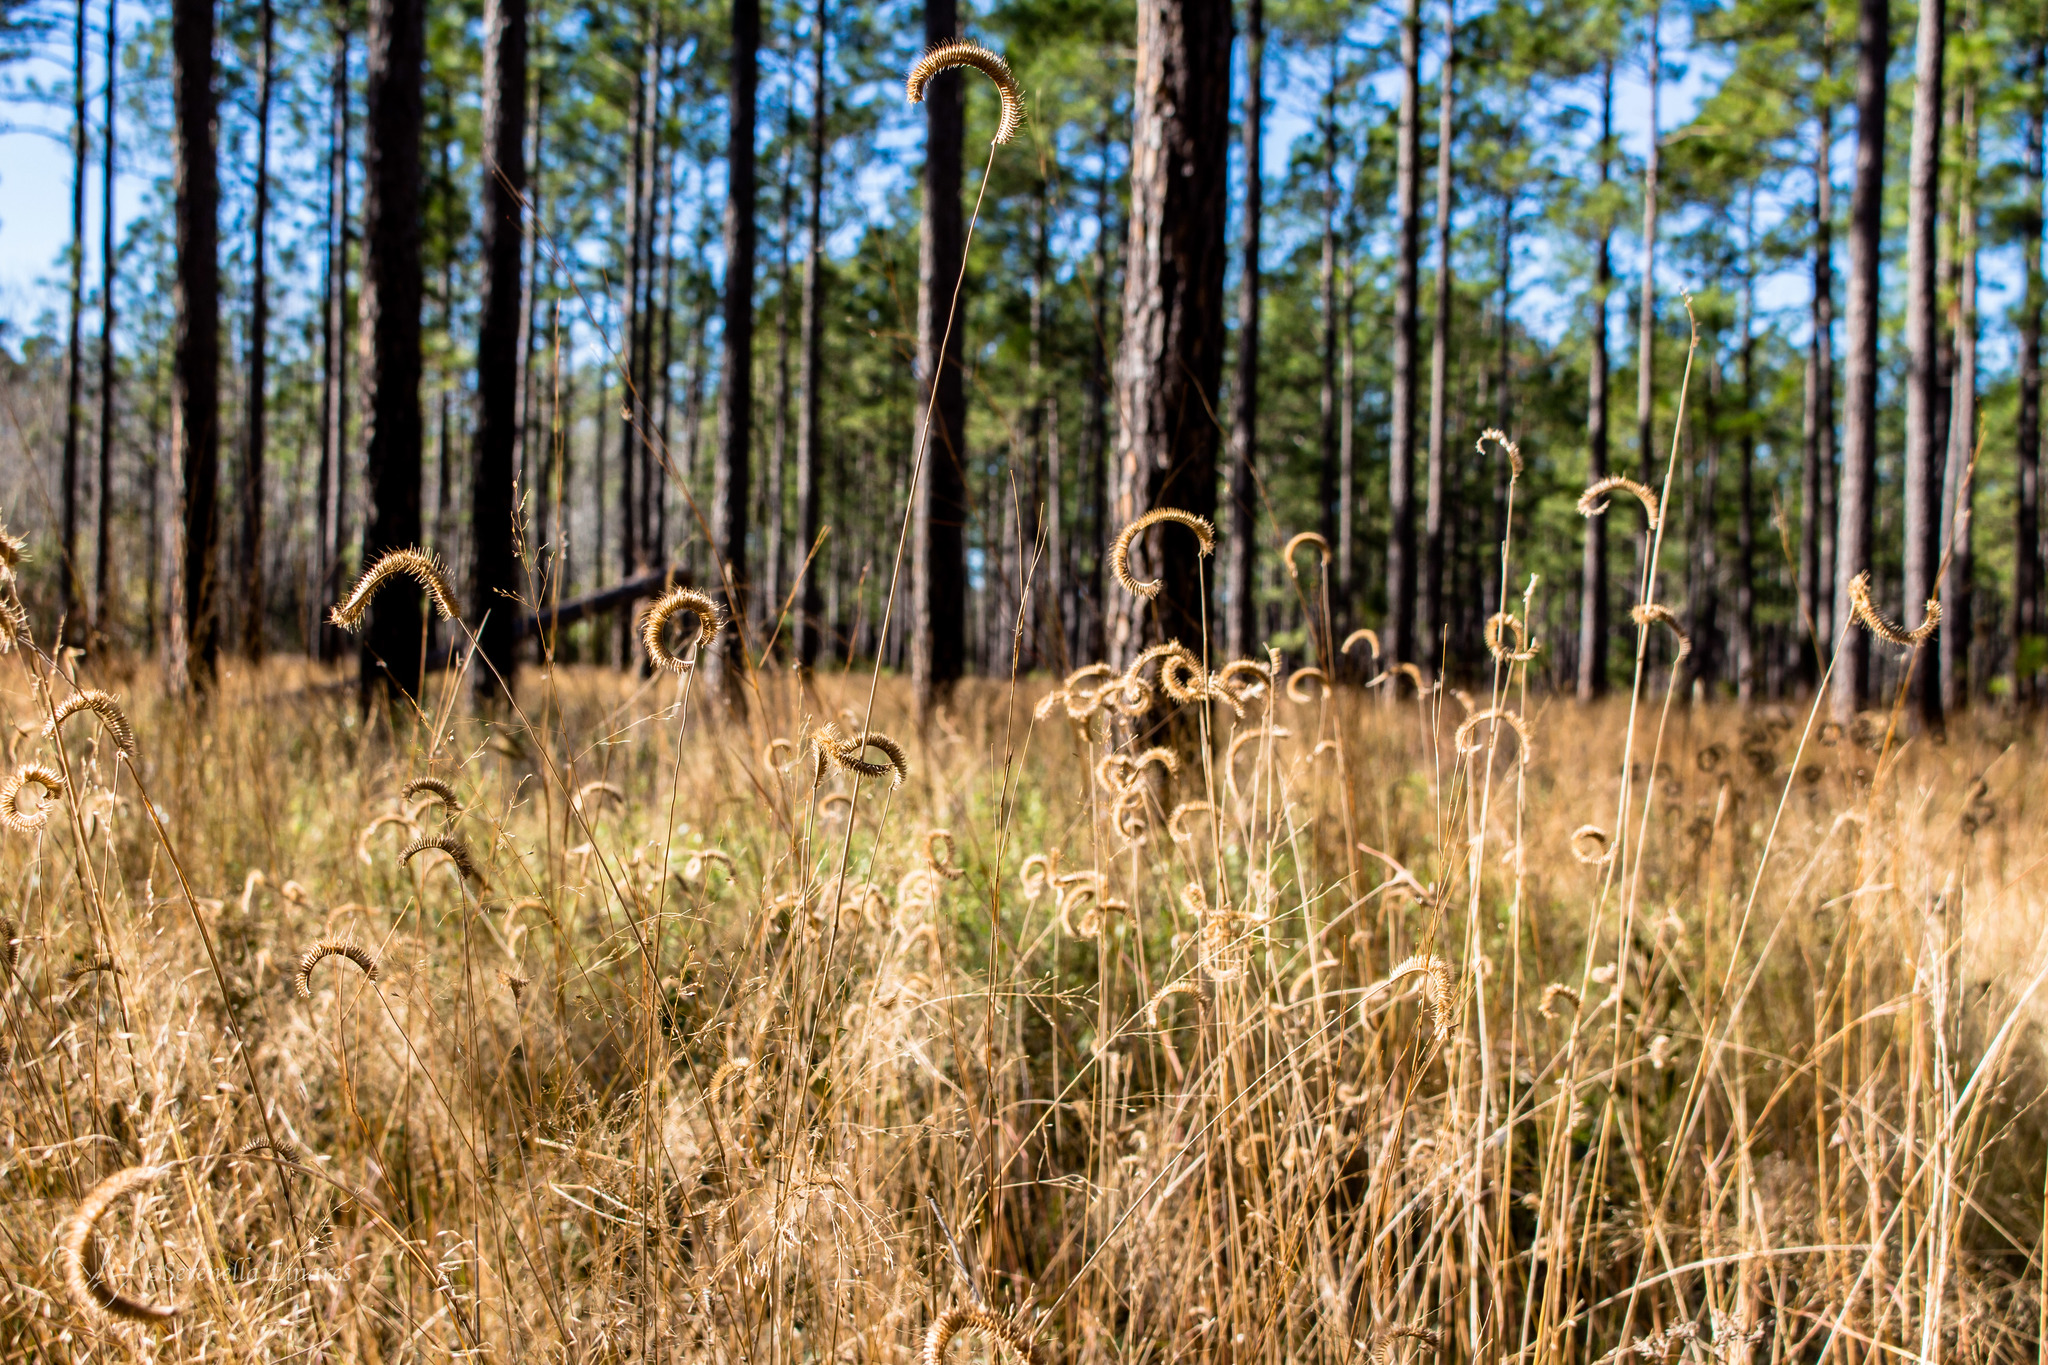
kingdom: Plantae
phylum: Tracheophyta
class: Liliopsida
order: Poales
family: Poaceae
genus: Ctenium
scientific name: Ctenium aromaticum
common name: Toothache grass
